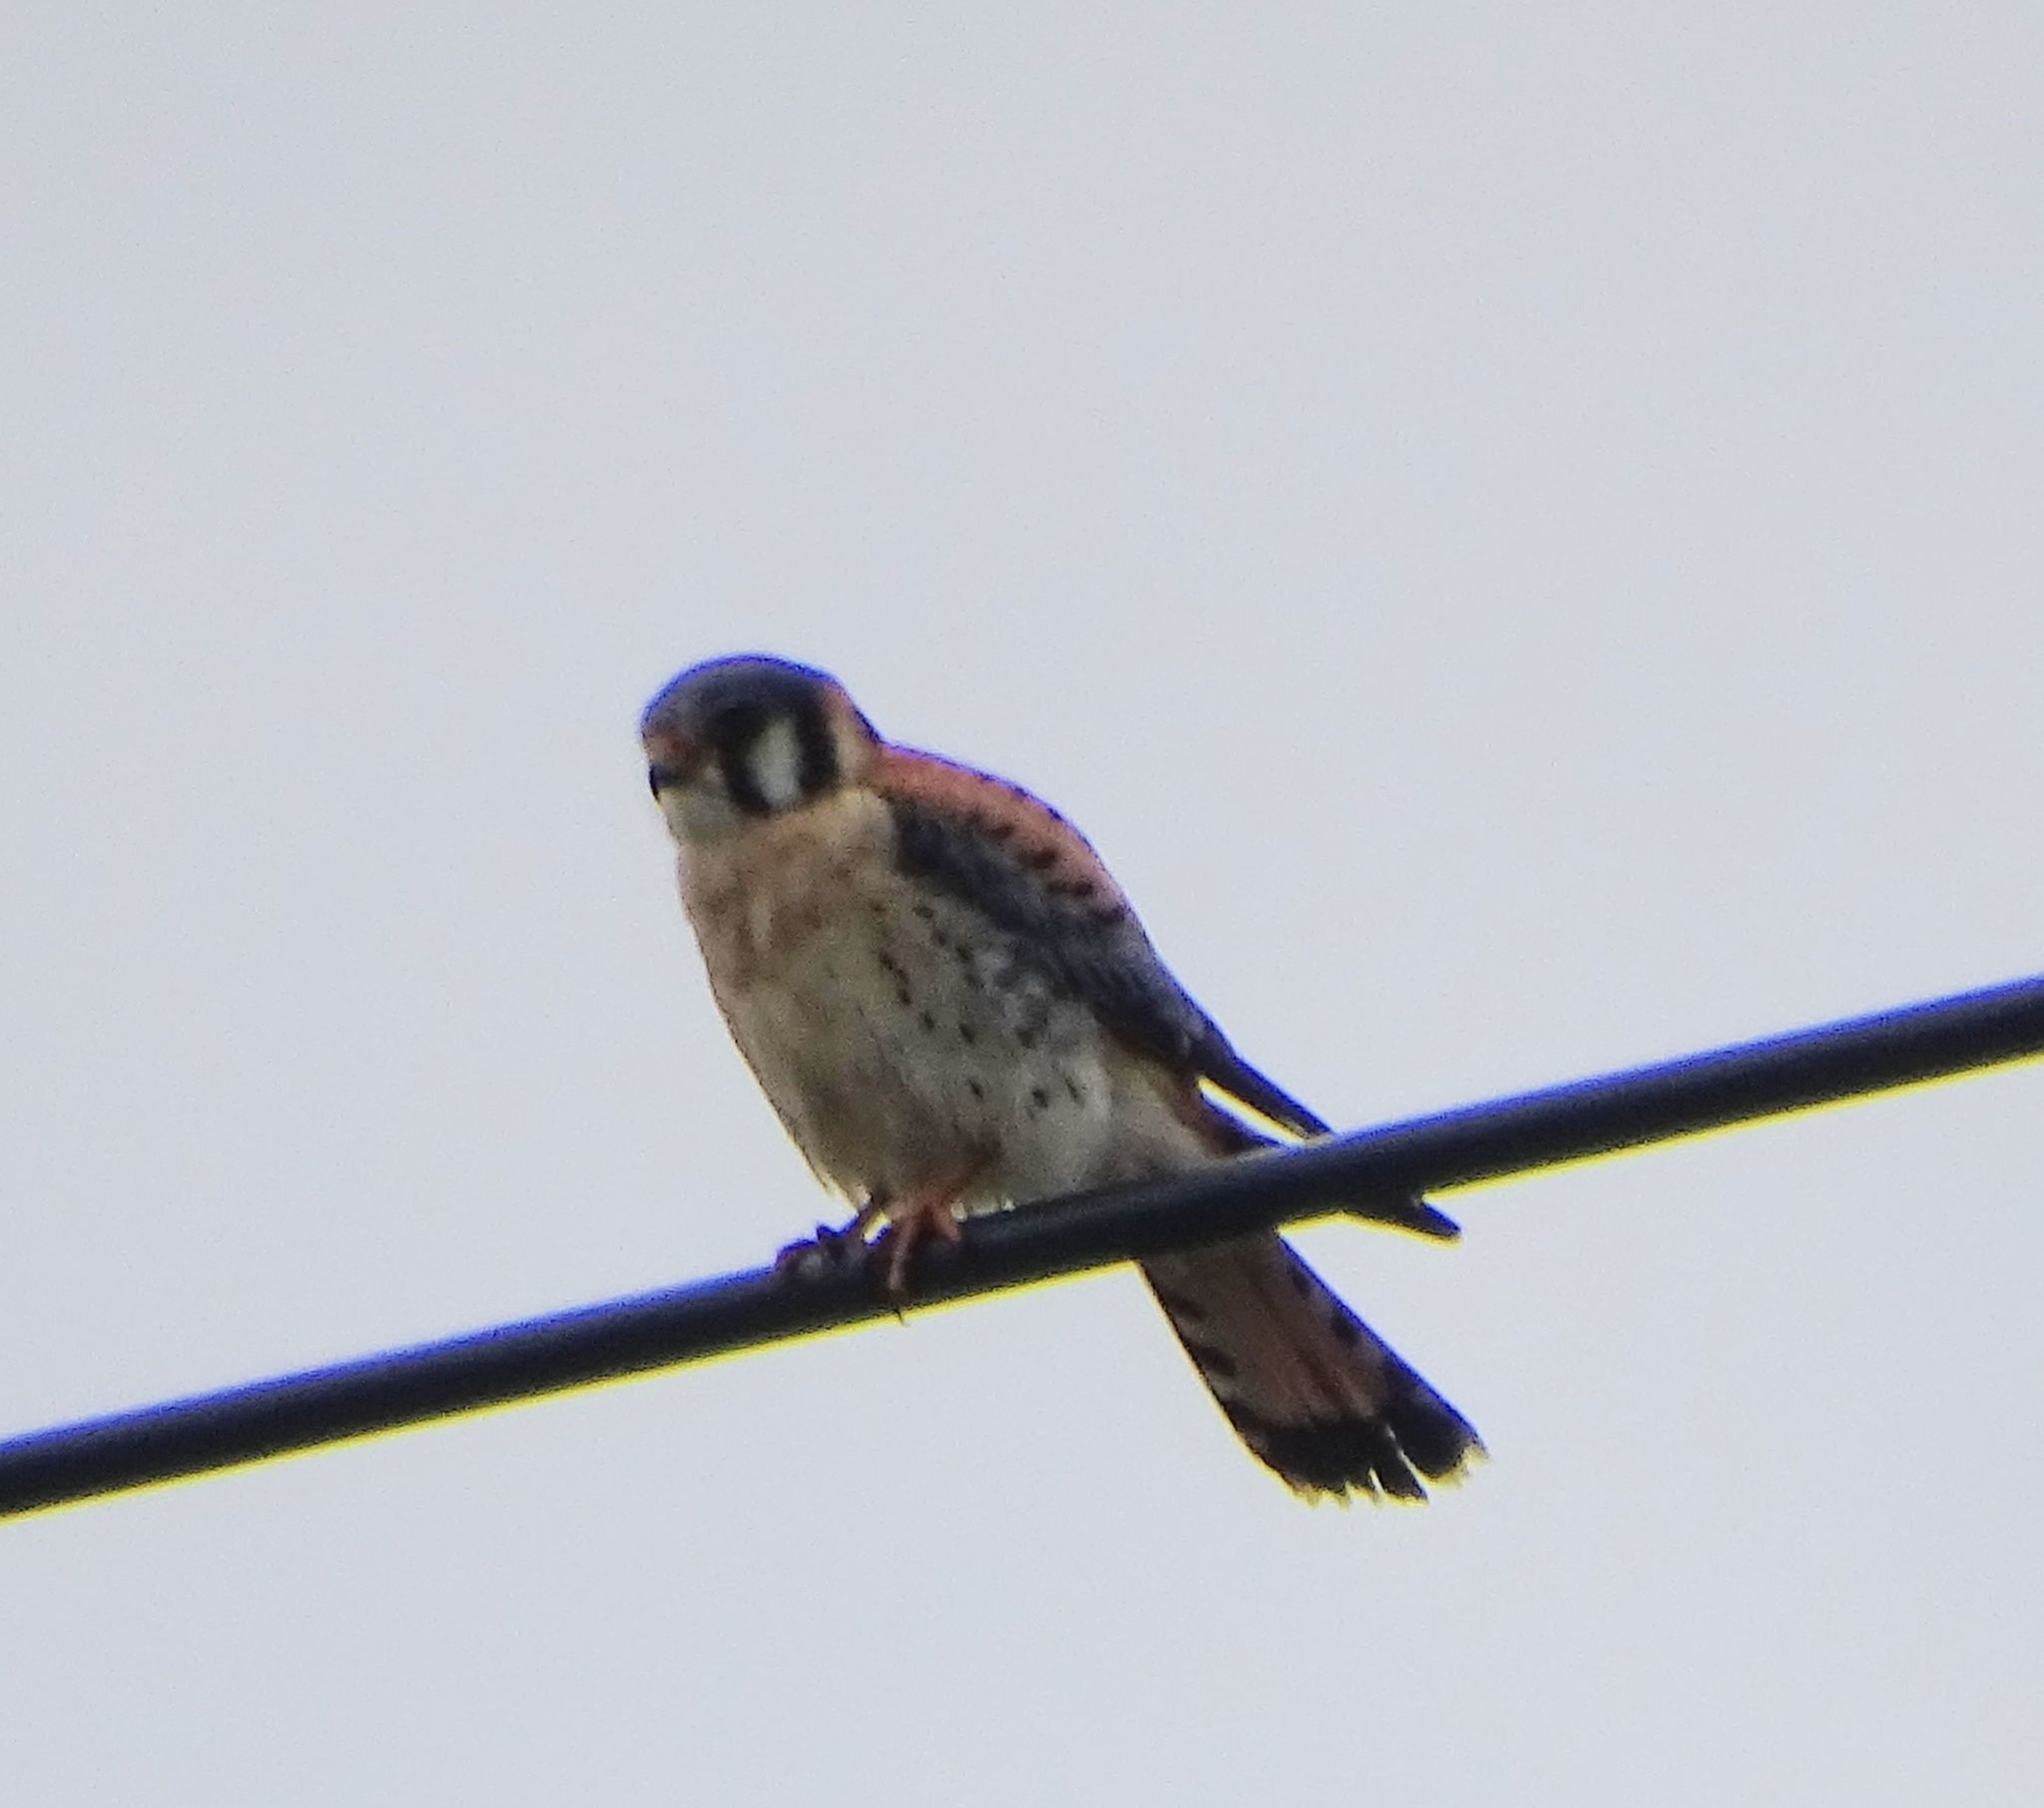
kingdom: Animalia
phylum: Chordata
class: Aves
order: Falconiformes
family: Falconidae
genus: Falco
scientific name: Falco sparverius
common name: American kestrel
